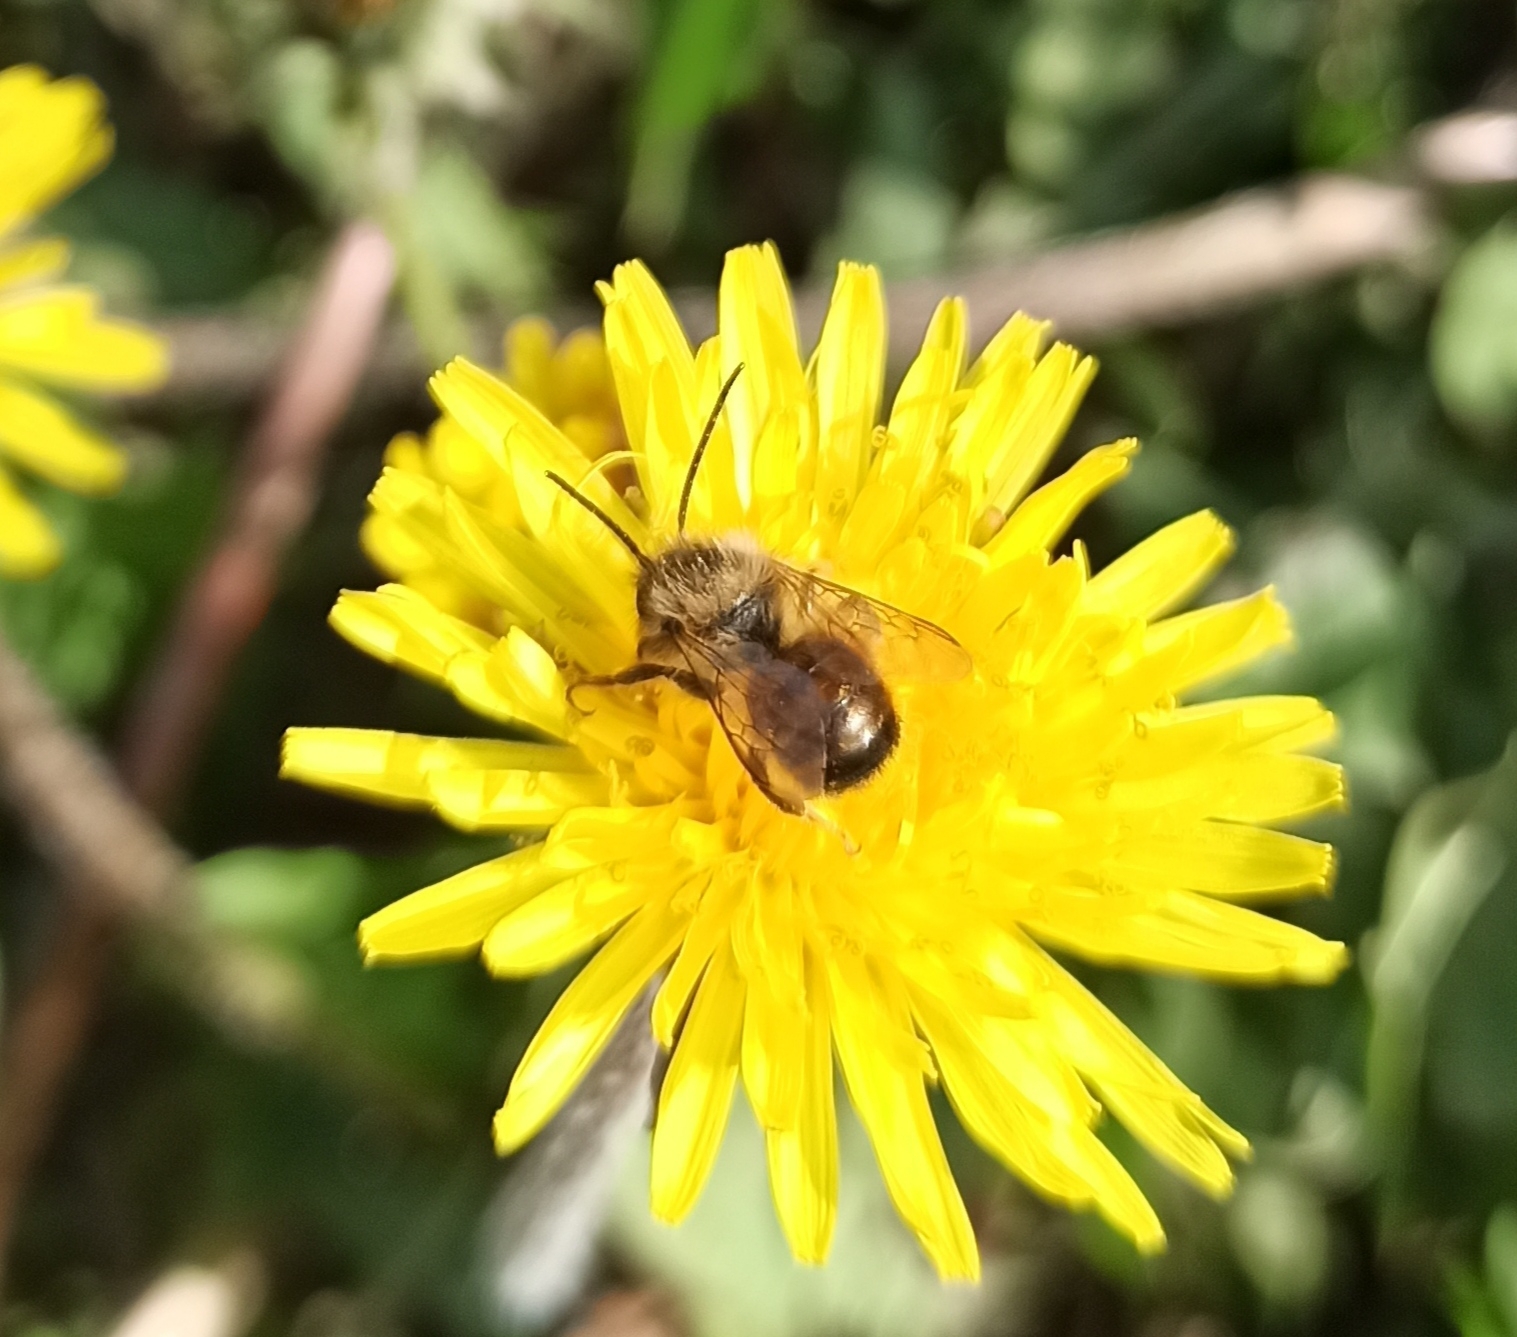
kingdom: Animalia
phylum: Arthropoda
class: Insecta
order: Hymenoptera
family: Megachilidae
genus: Osmia
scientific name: Osmia bicornis
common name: Red mason bee
